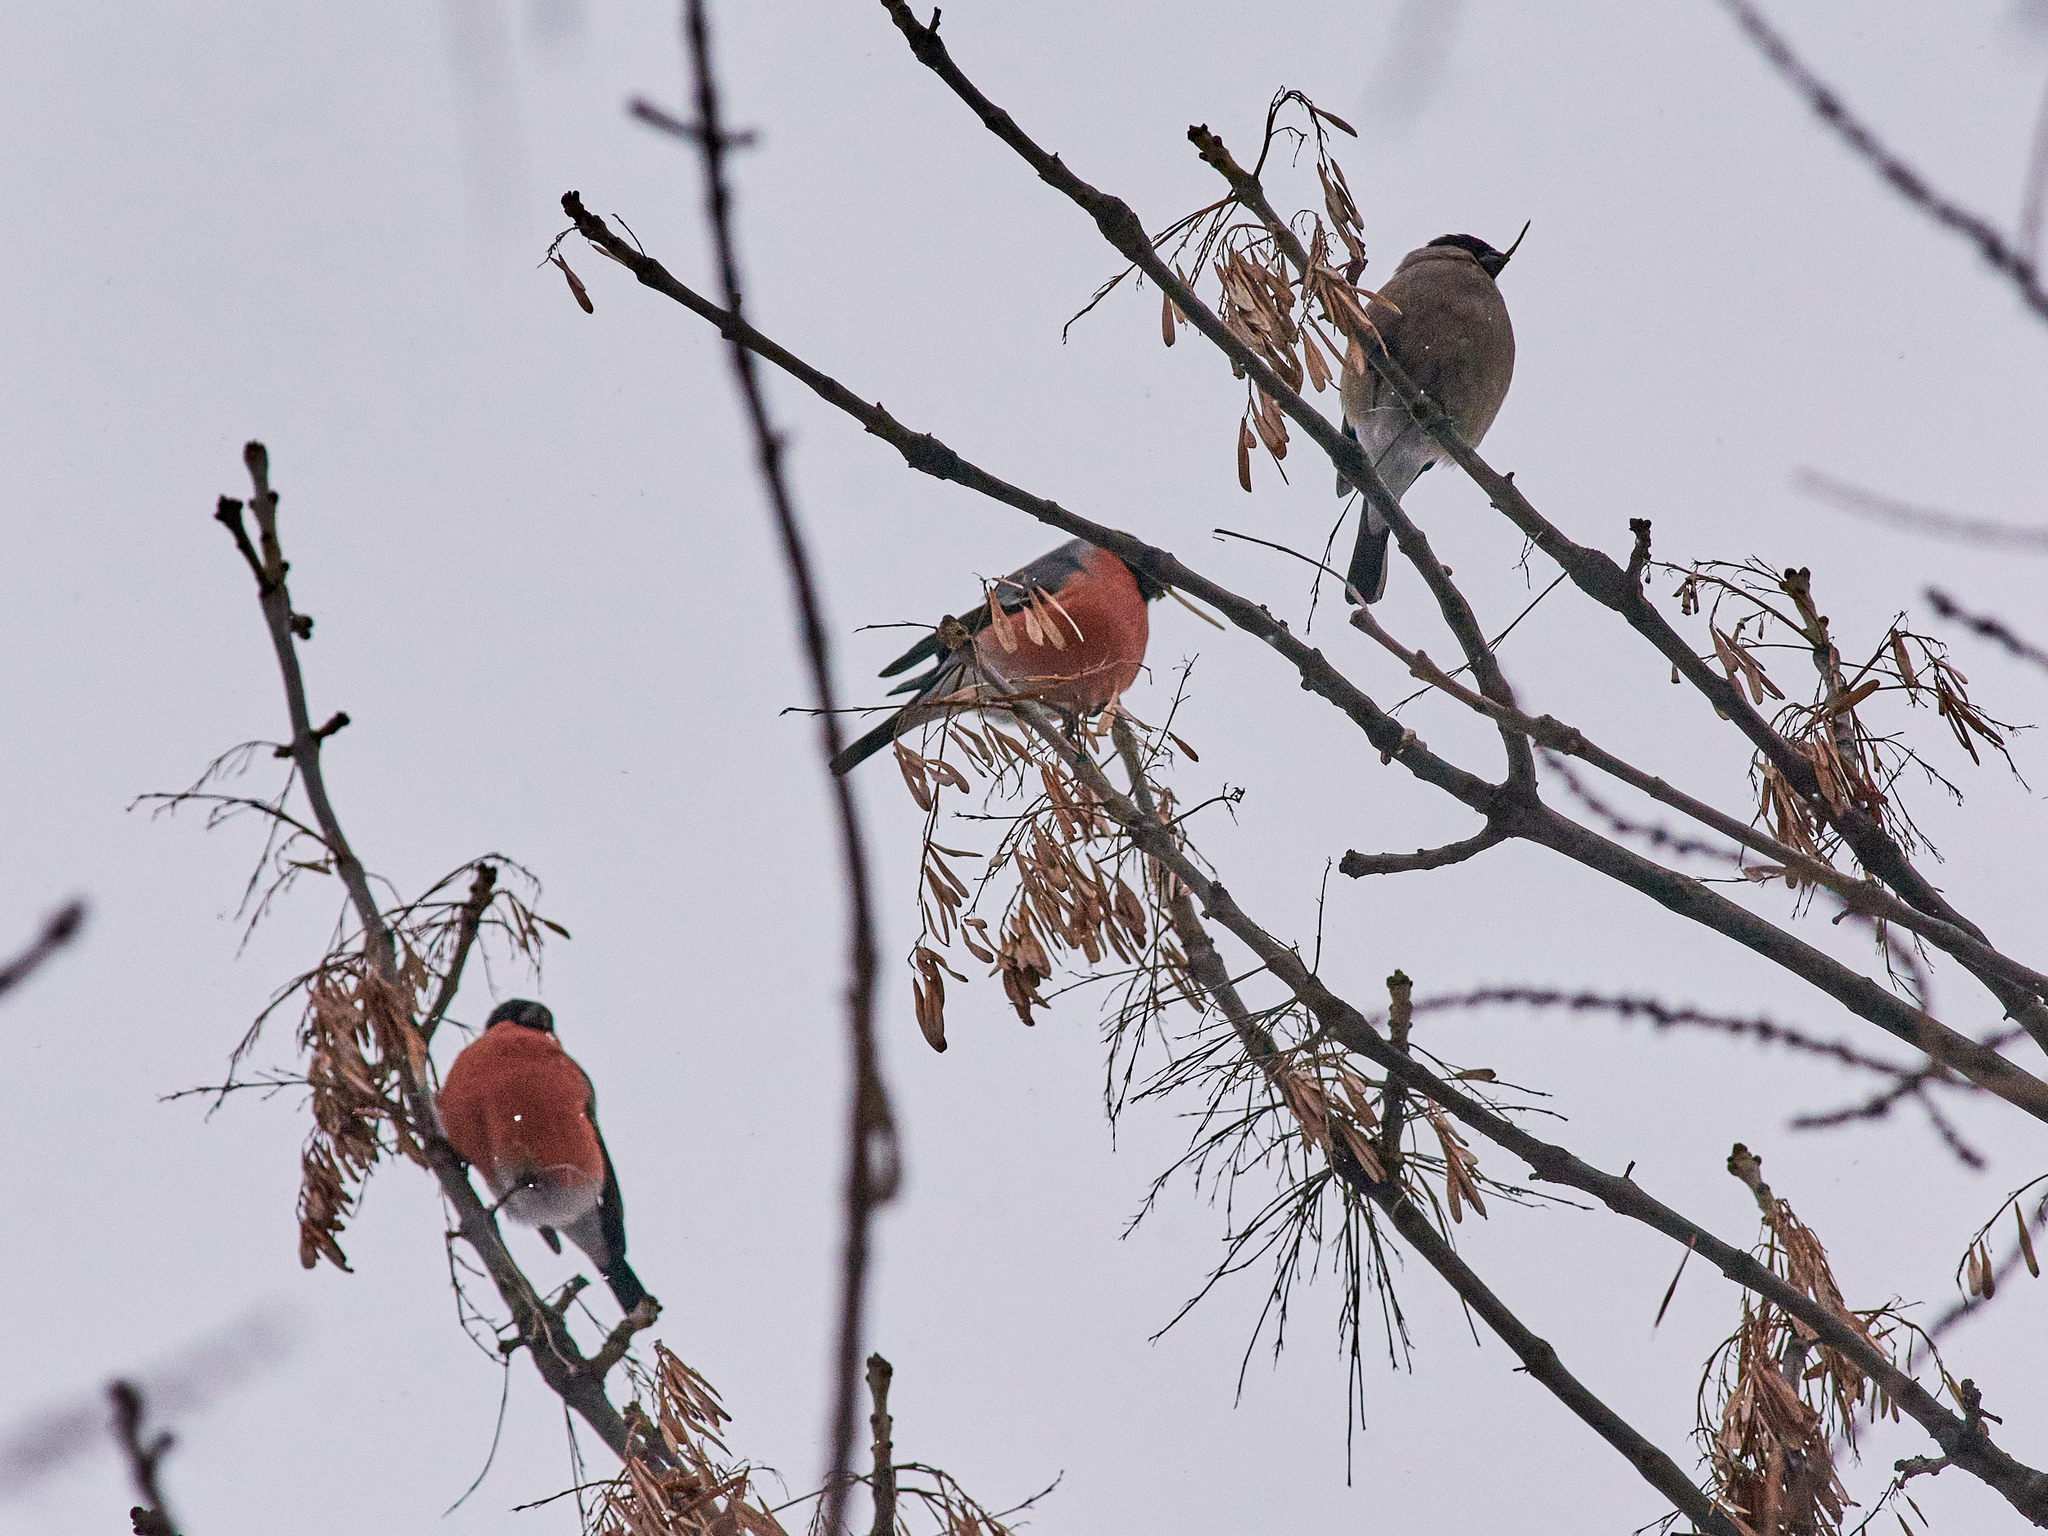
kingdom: Animalia
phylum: Chordata
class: Aves
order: Passeriformes
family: Fringillidae
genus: Pyrrhula
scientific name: Pyrrhula pyrrhula
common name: Eurasian bullfinch
